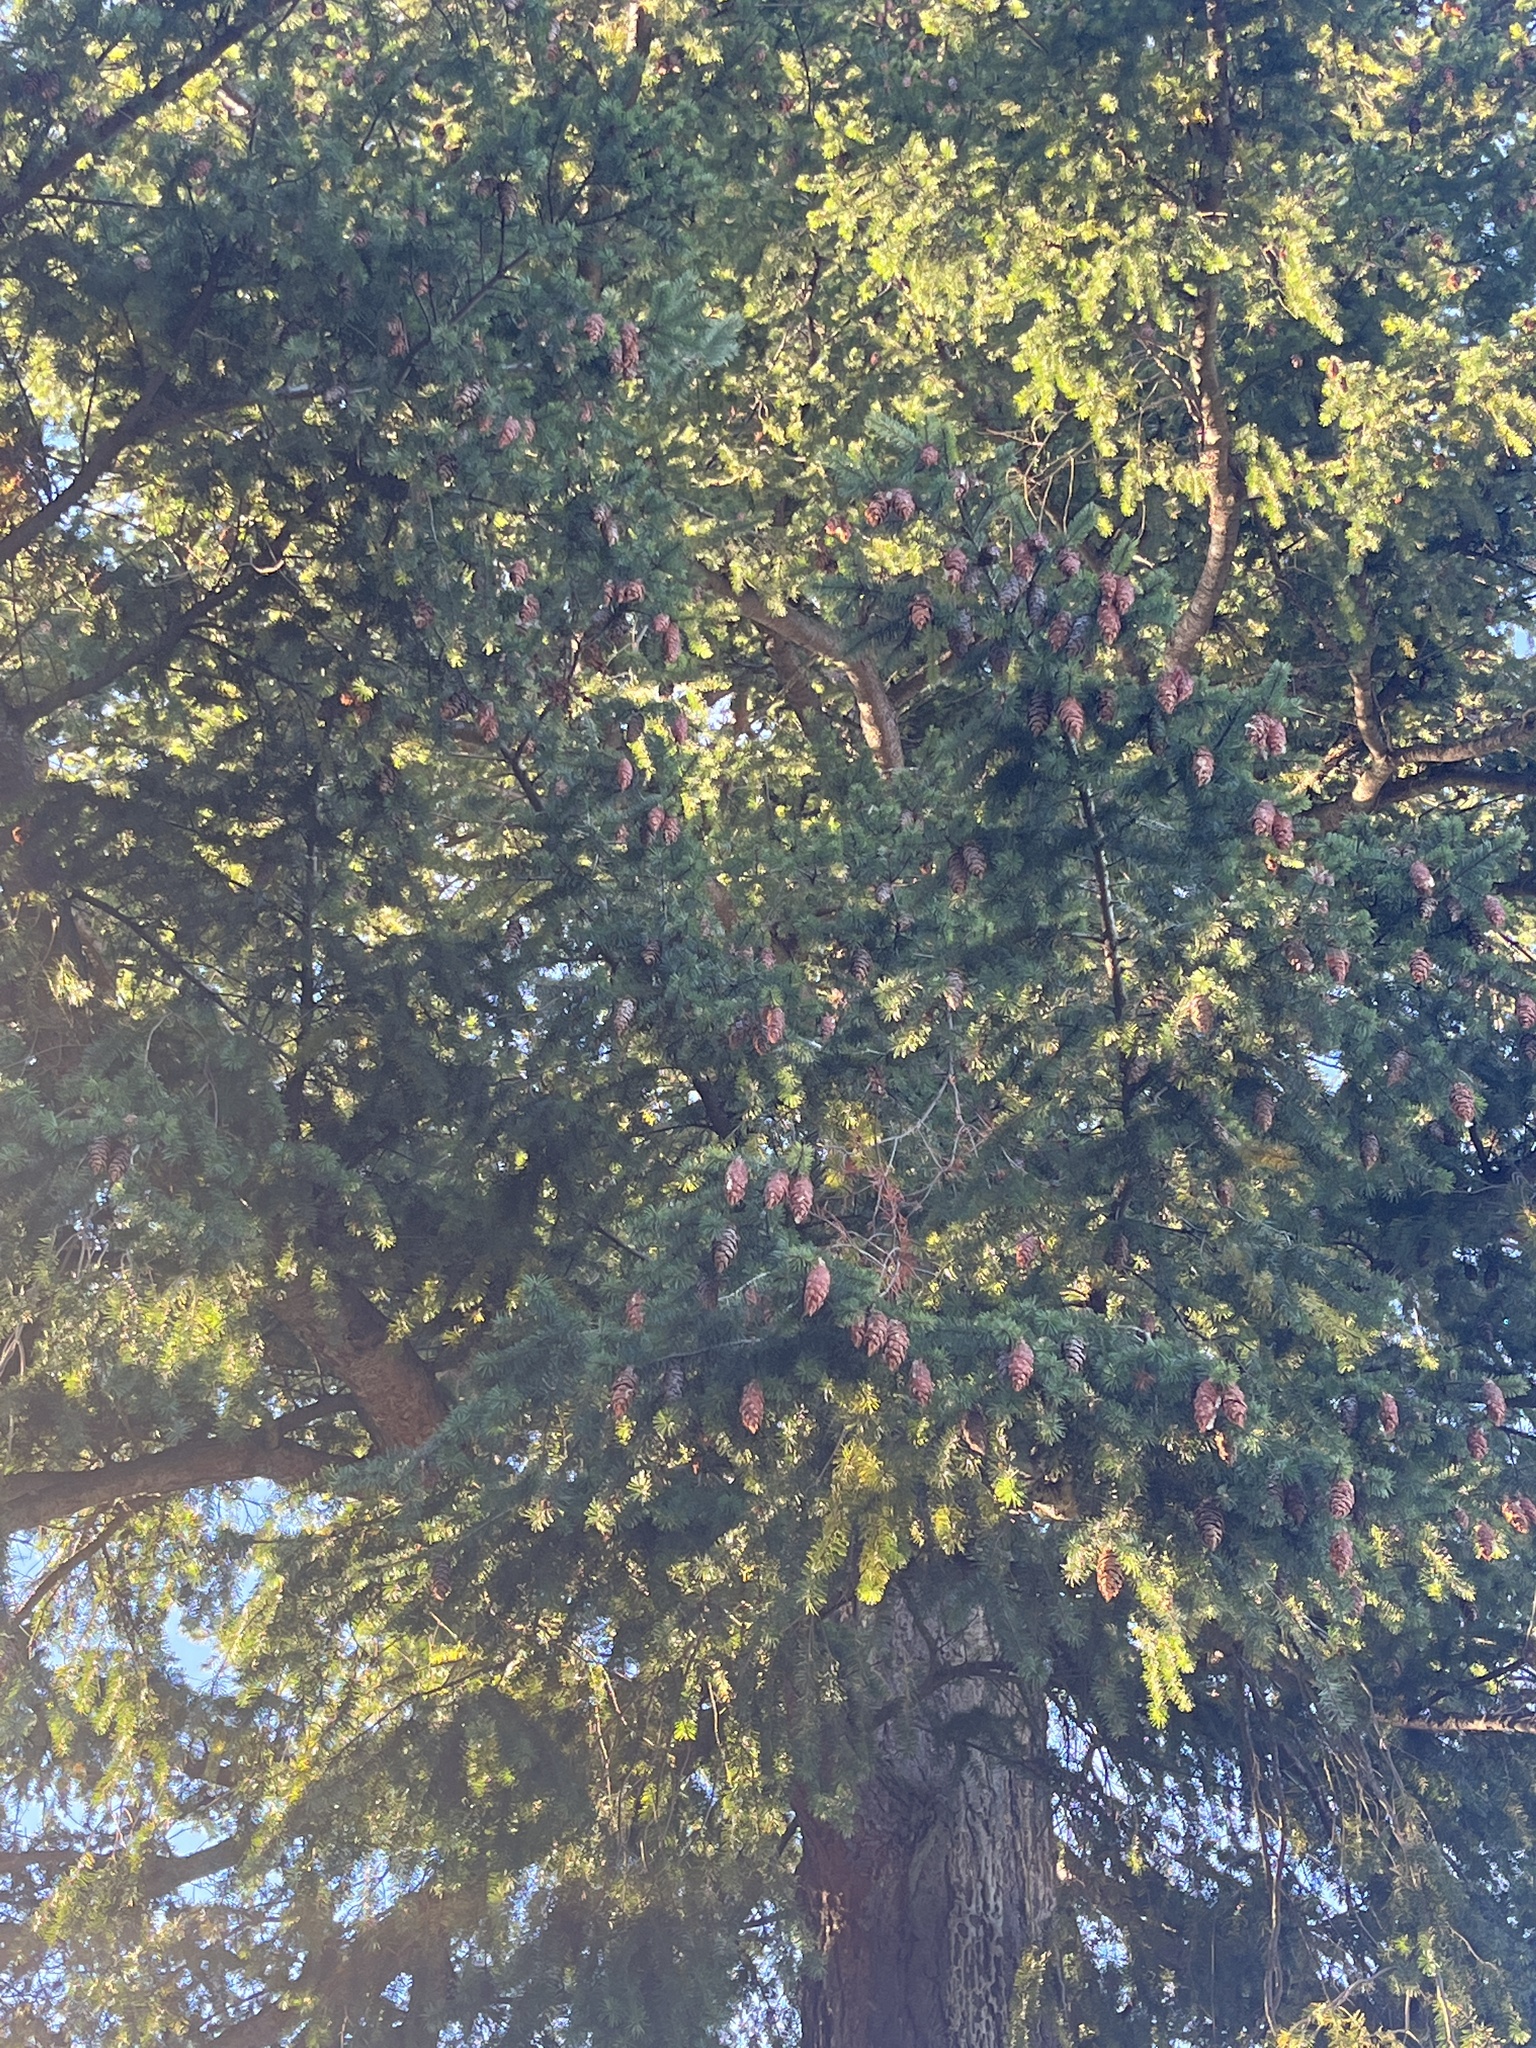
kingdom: Plantae
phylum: Tracheophyta
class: Pinopsida
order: Pinales
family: Pinaceae
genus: Pseudotsuga
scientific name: Pseudotsuga menziesii
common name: Douglas fir
